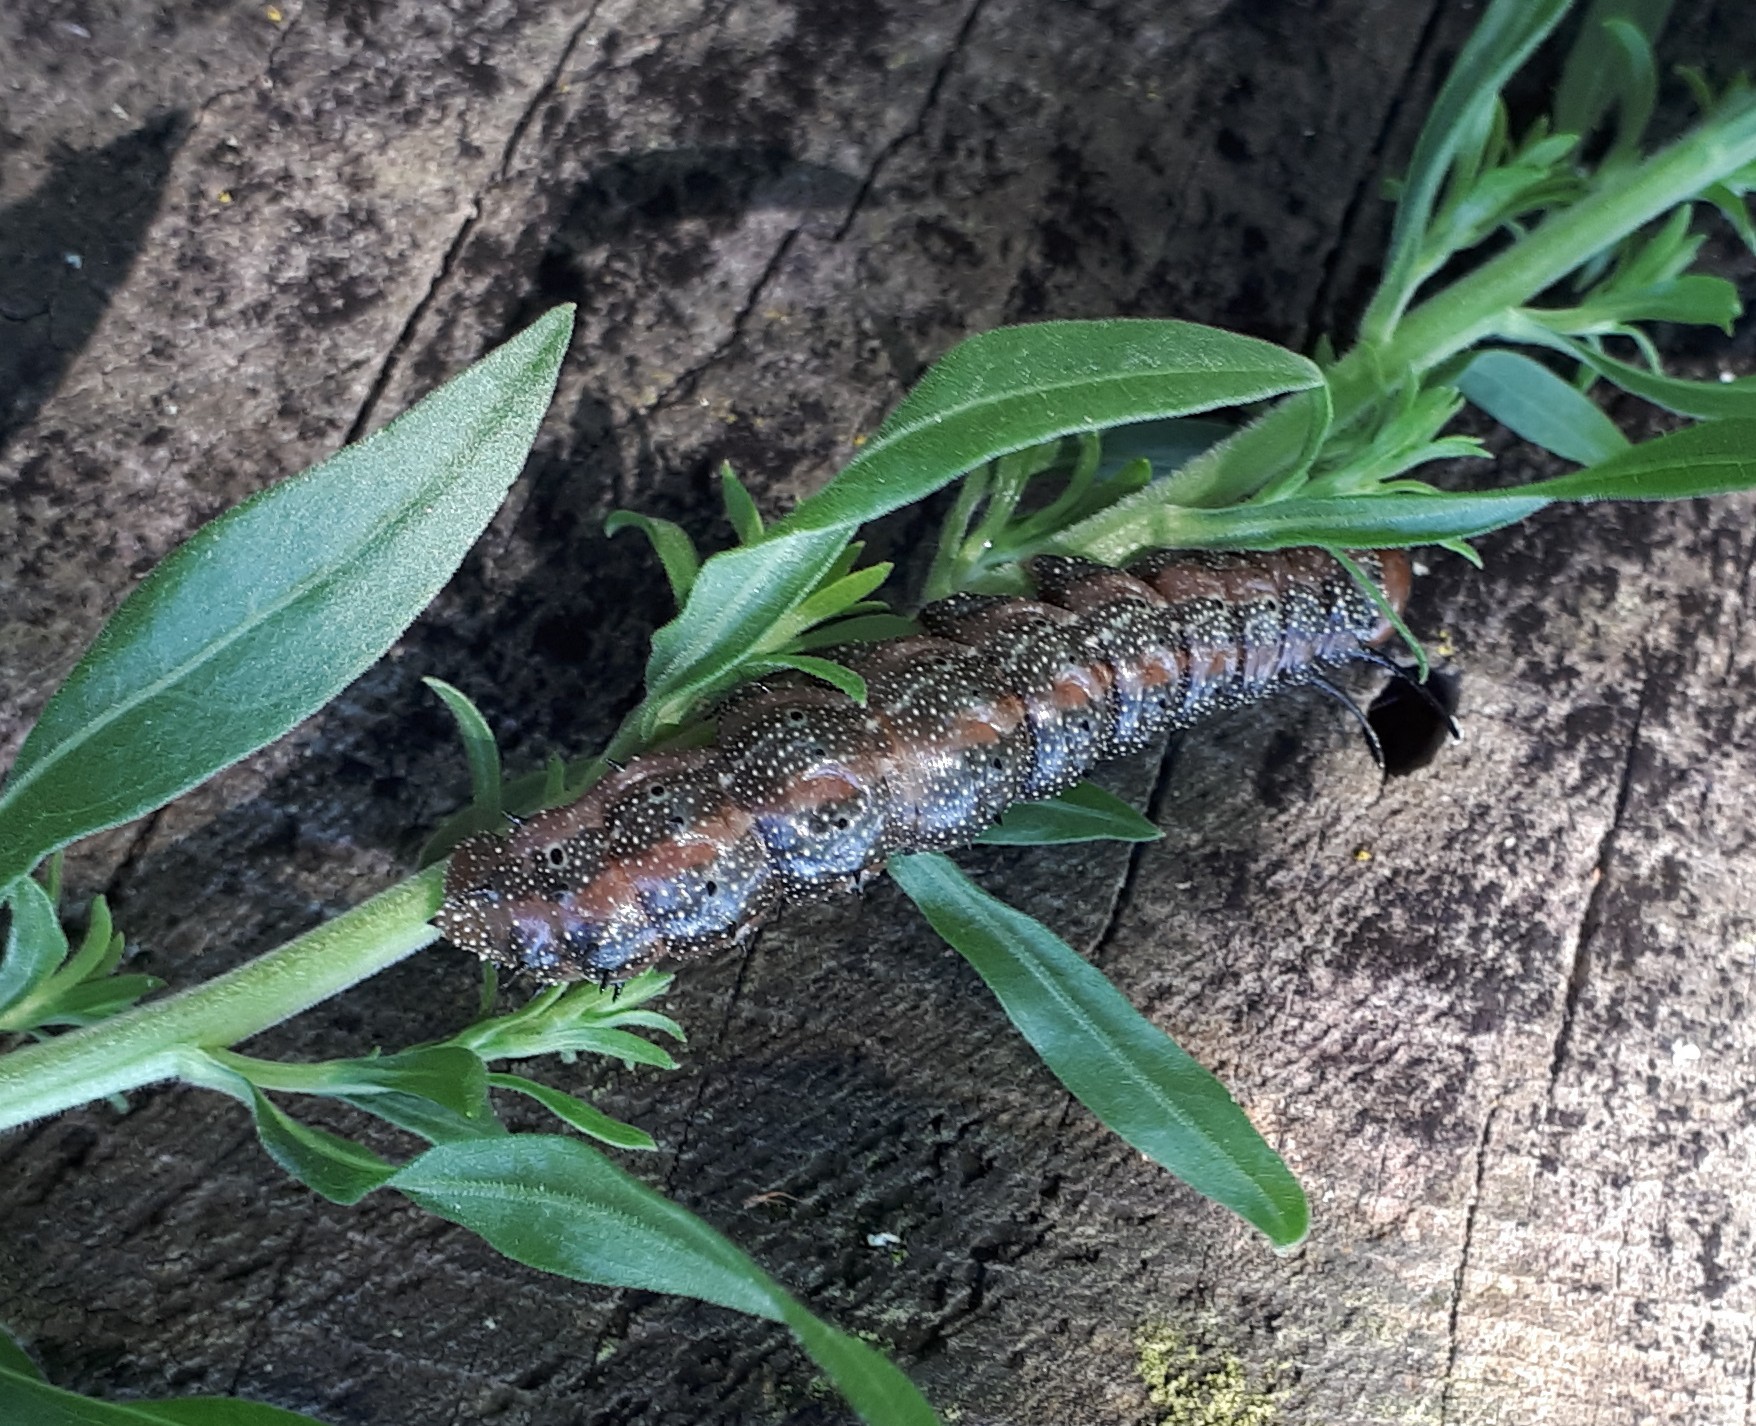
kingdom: Animalia
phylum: Arthropoda
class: Insecta
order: Lepidoptera
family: Saturniidae
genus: Anisota
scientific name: Anisota virginiensis
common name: Pink striped oakworm moth
